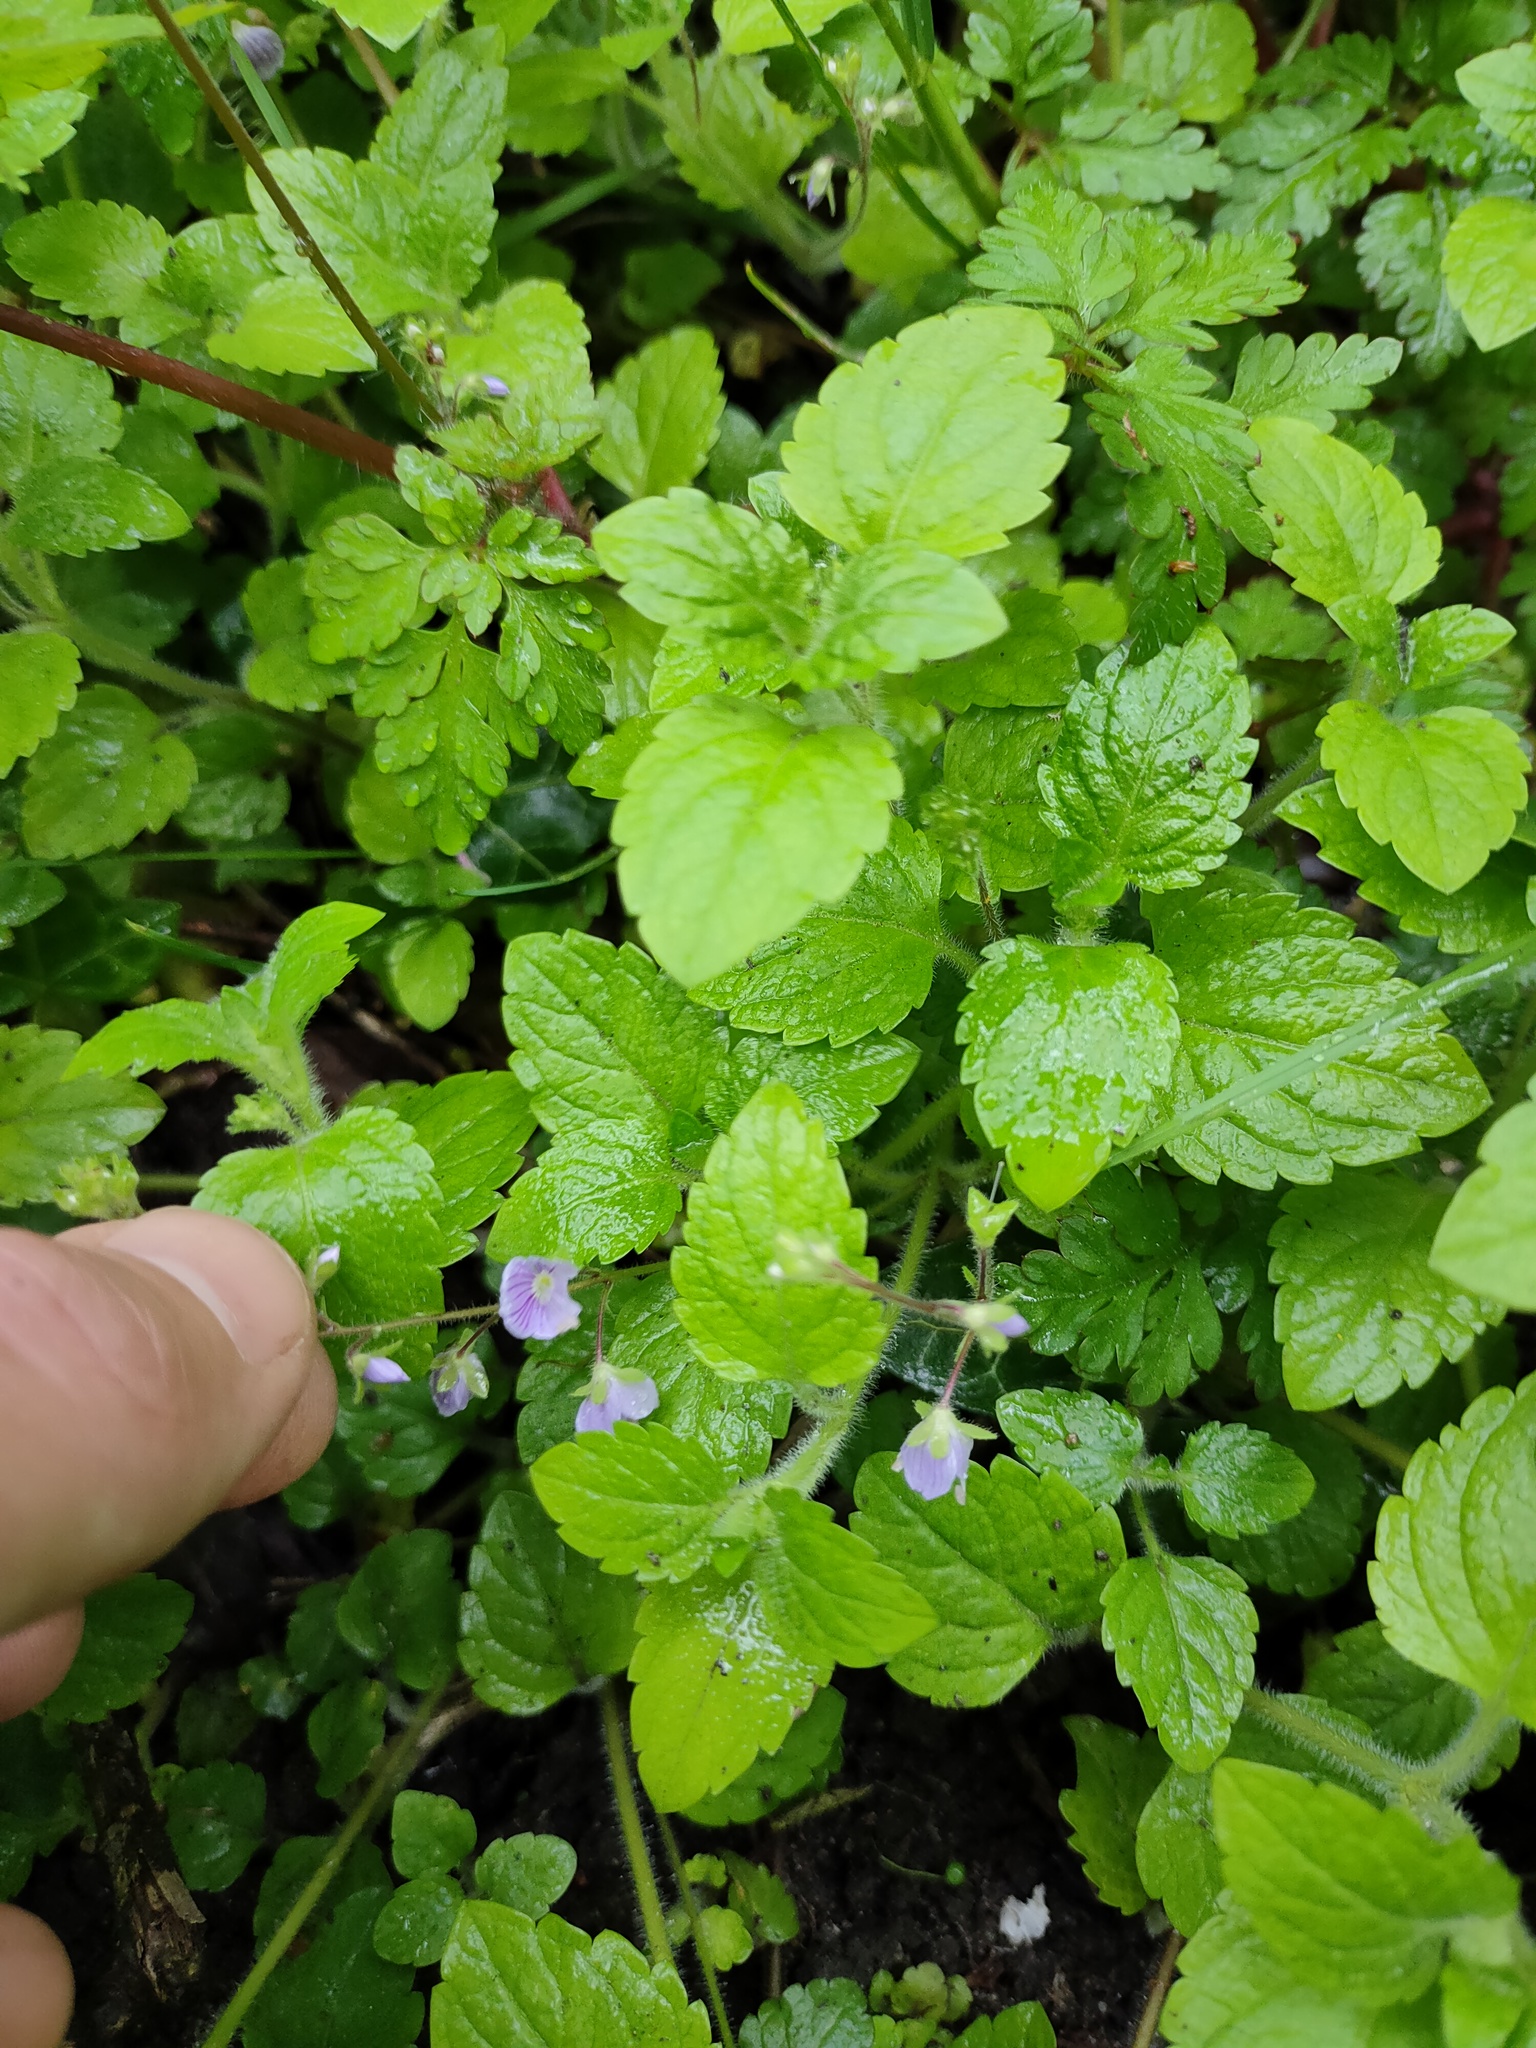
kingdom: Plantae
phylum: Tracheophyta
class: Magnoliopsida
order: Lamiales
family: Plantaginaceae
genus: Veronica
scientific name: Veronica montana
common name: Wood speedwell
